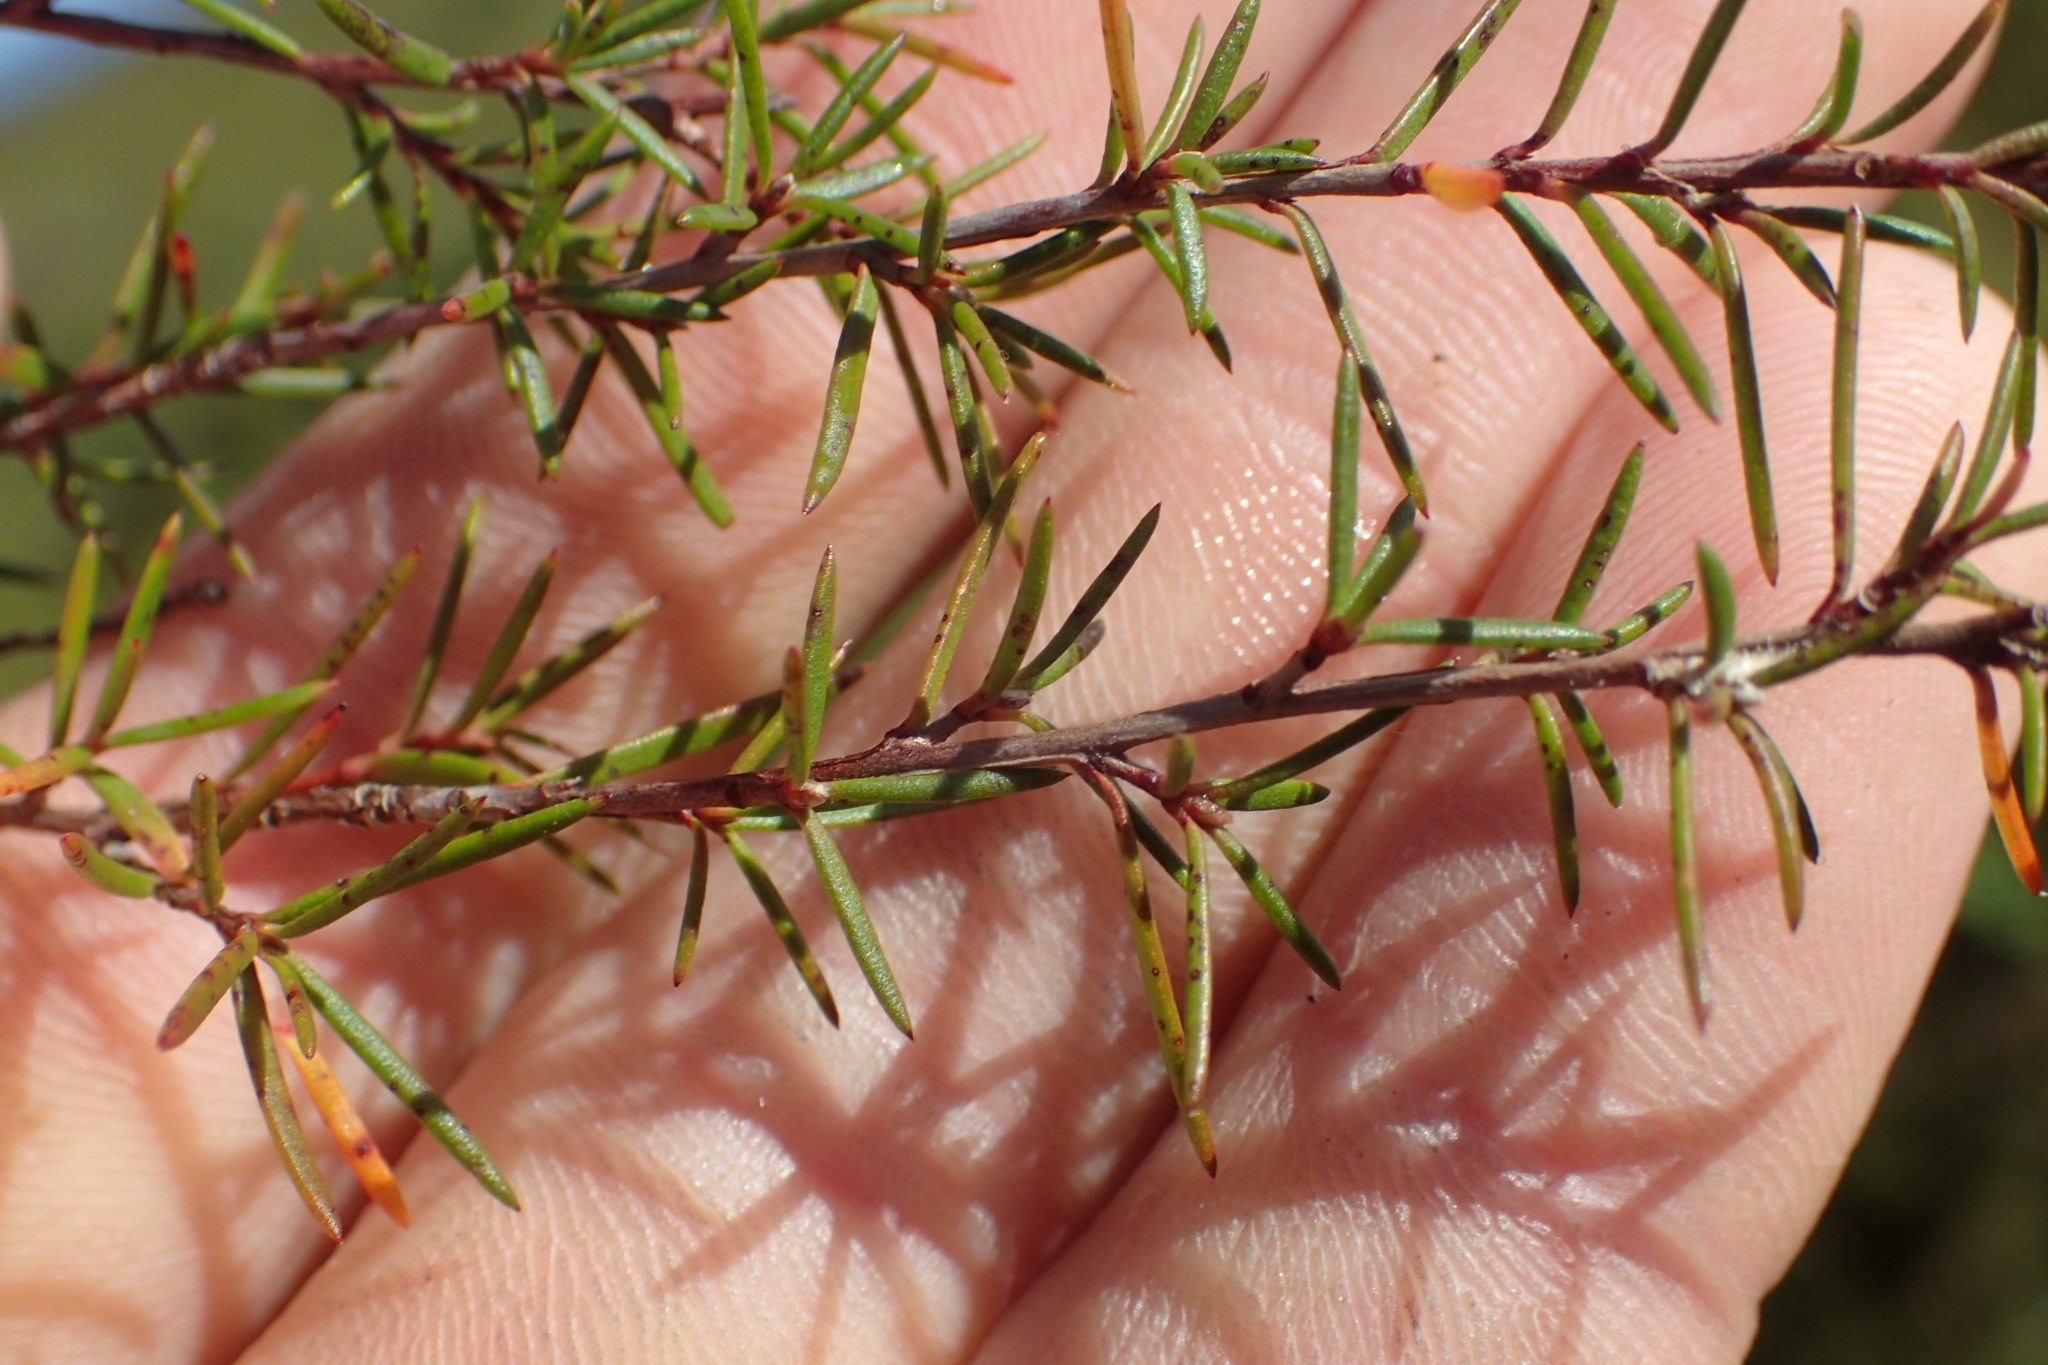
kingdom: Plantae
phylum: Tracheophyta
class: Magnoliopsida
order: Myrtales
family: Myrtaceae
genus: Leptospermum
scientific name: Leptospermum repo
